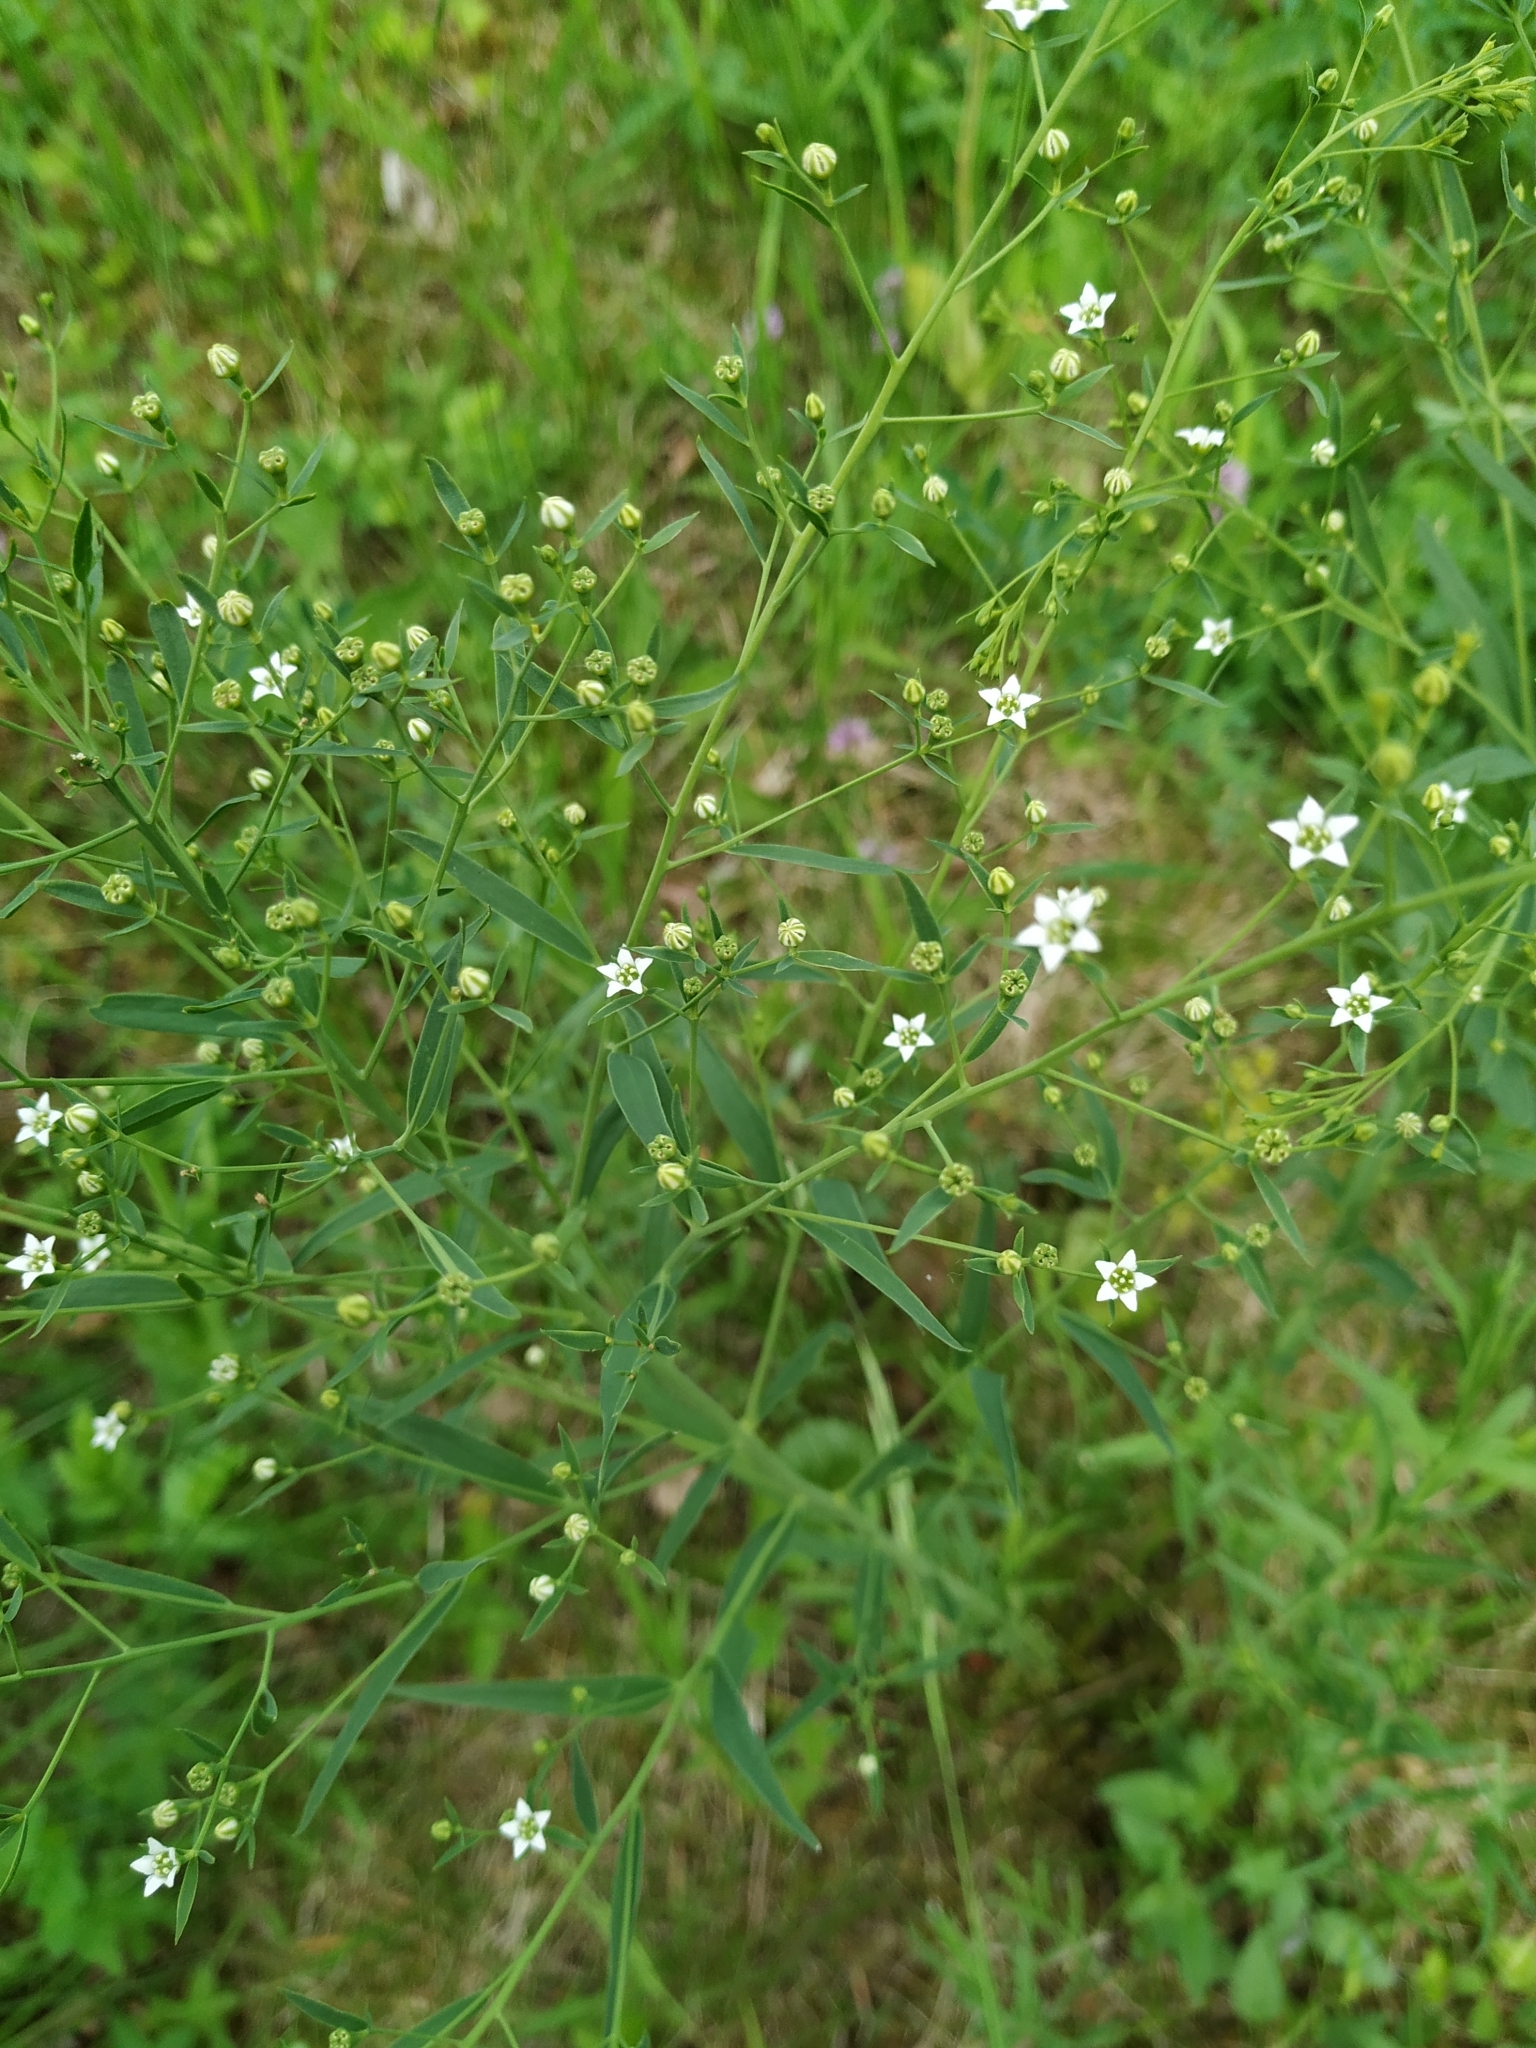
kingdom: Plantae
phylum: Tracheophyta
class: Magnoliopsida
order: Malpighiales
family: Linaceae
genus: Linum
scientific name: Linum catharticum
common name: Fairy flax
